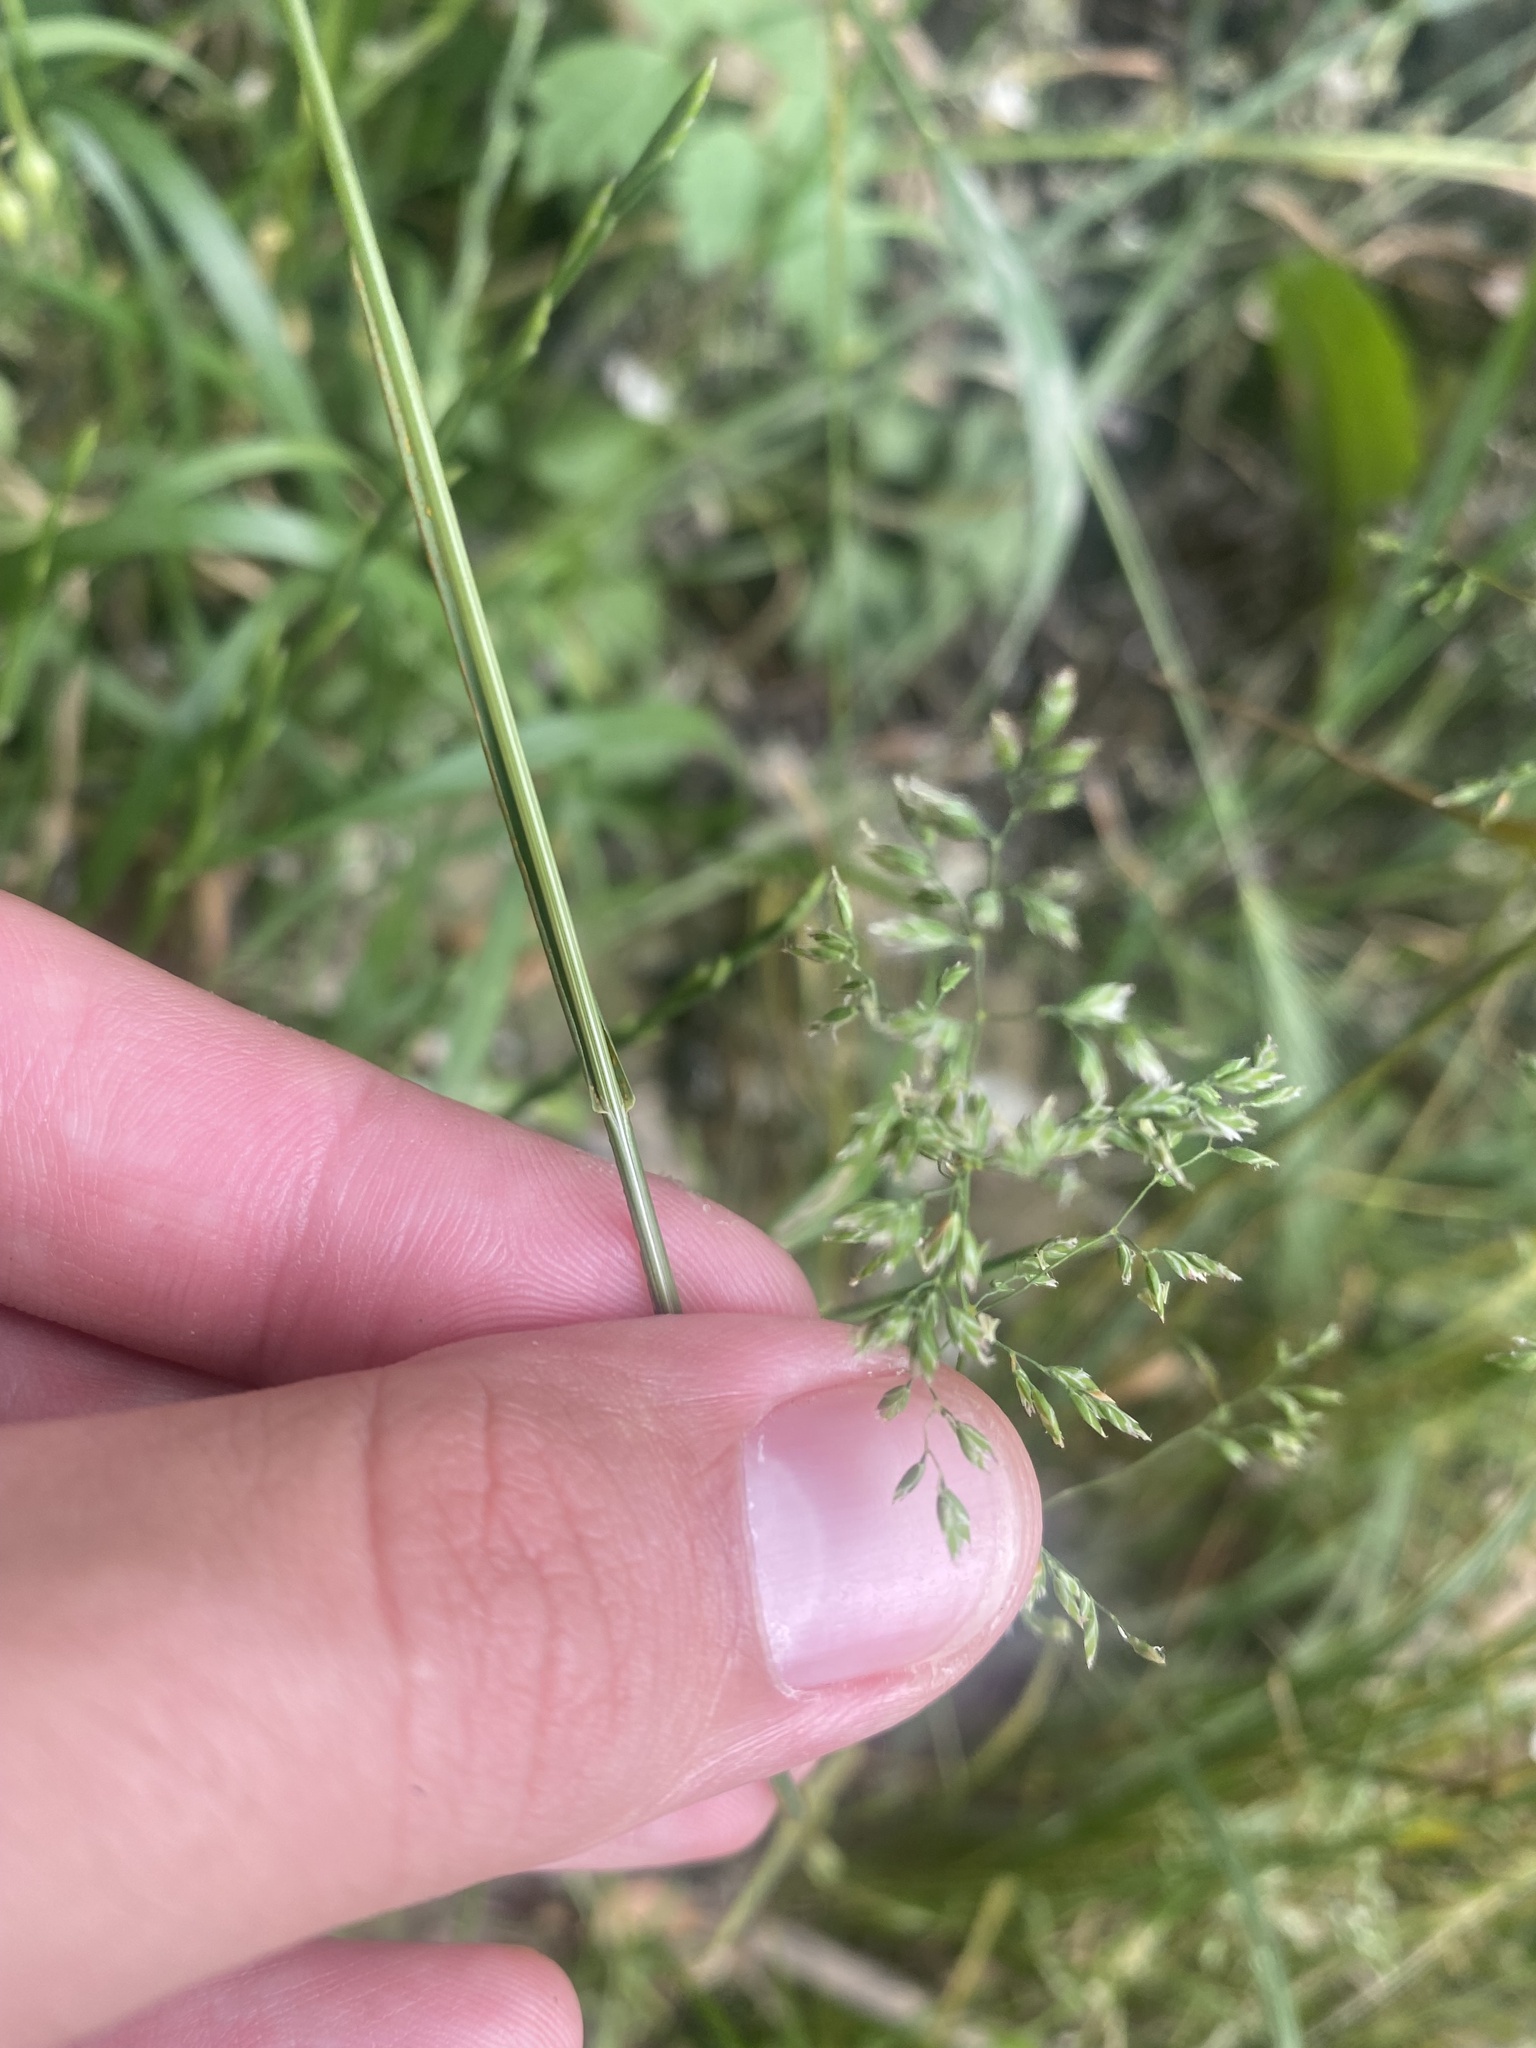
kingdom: Plantae
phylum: Tracheophyta
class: Liliopsida
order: Poales
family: Poaceae
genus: Poa
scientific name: Poa pratensis
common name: Kentucky bluegrass
